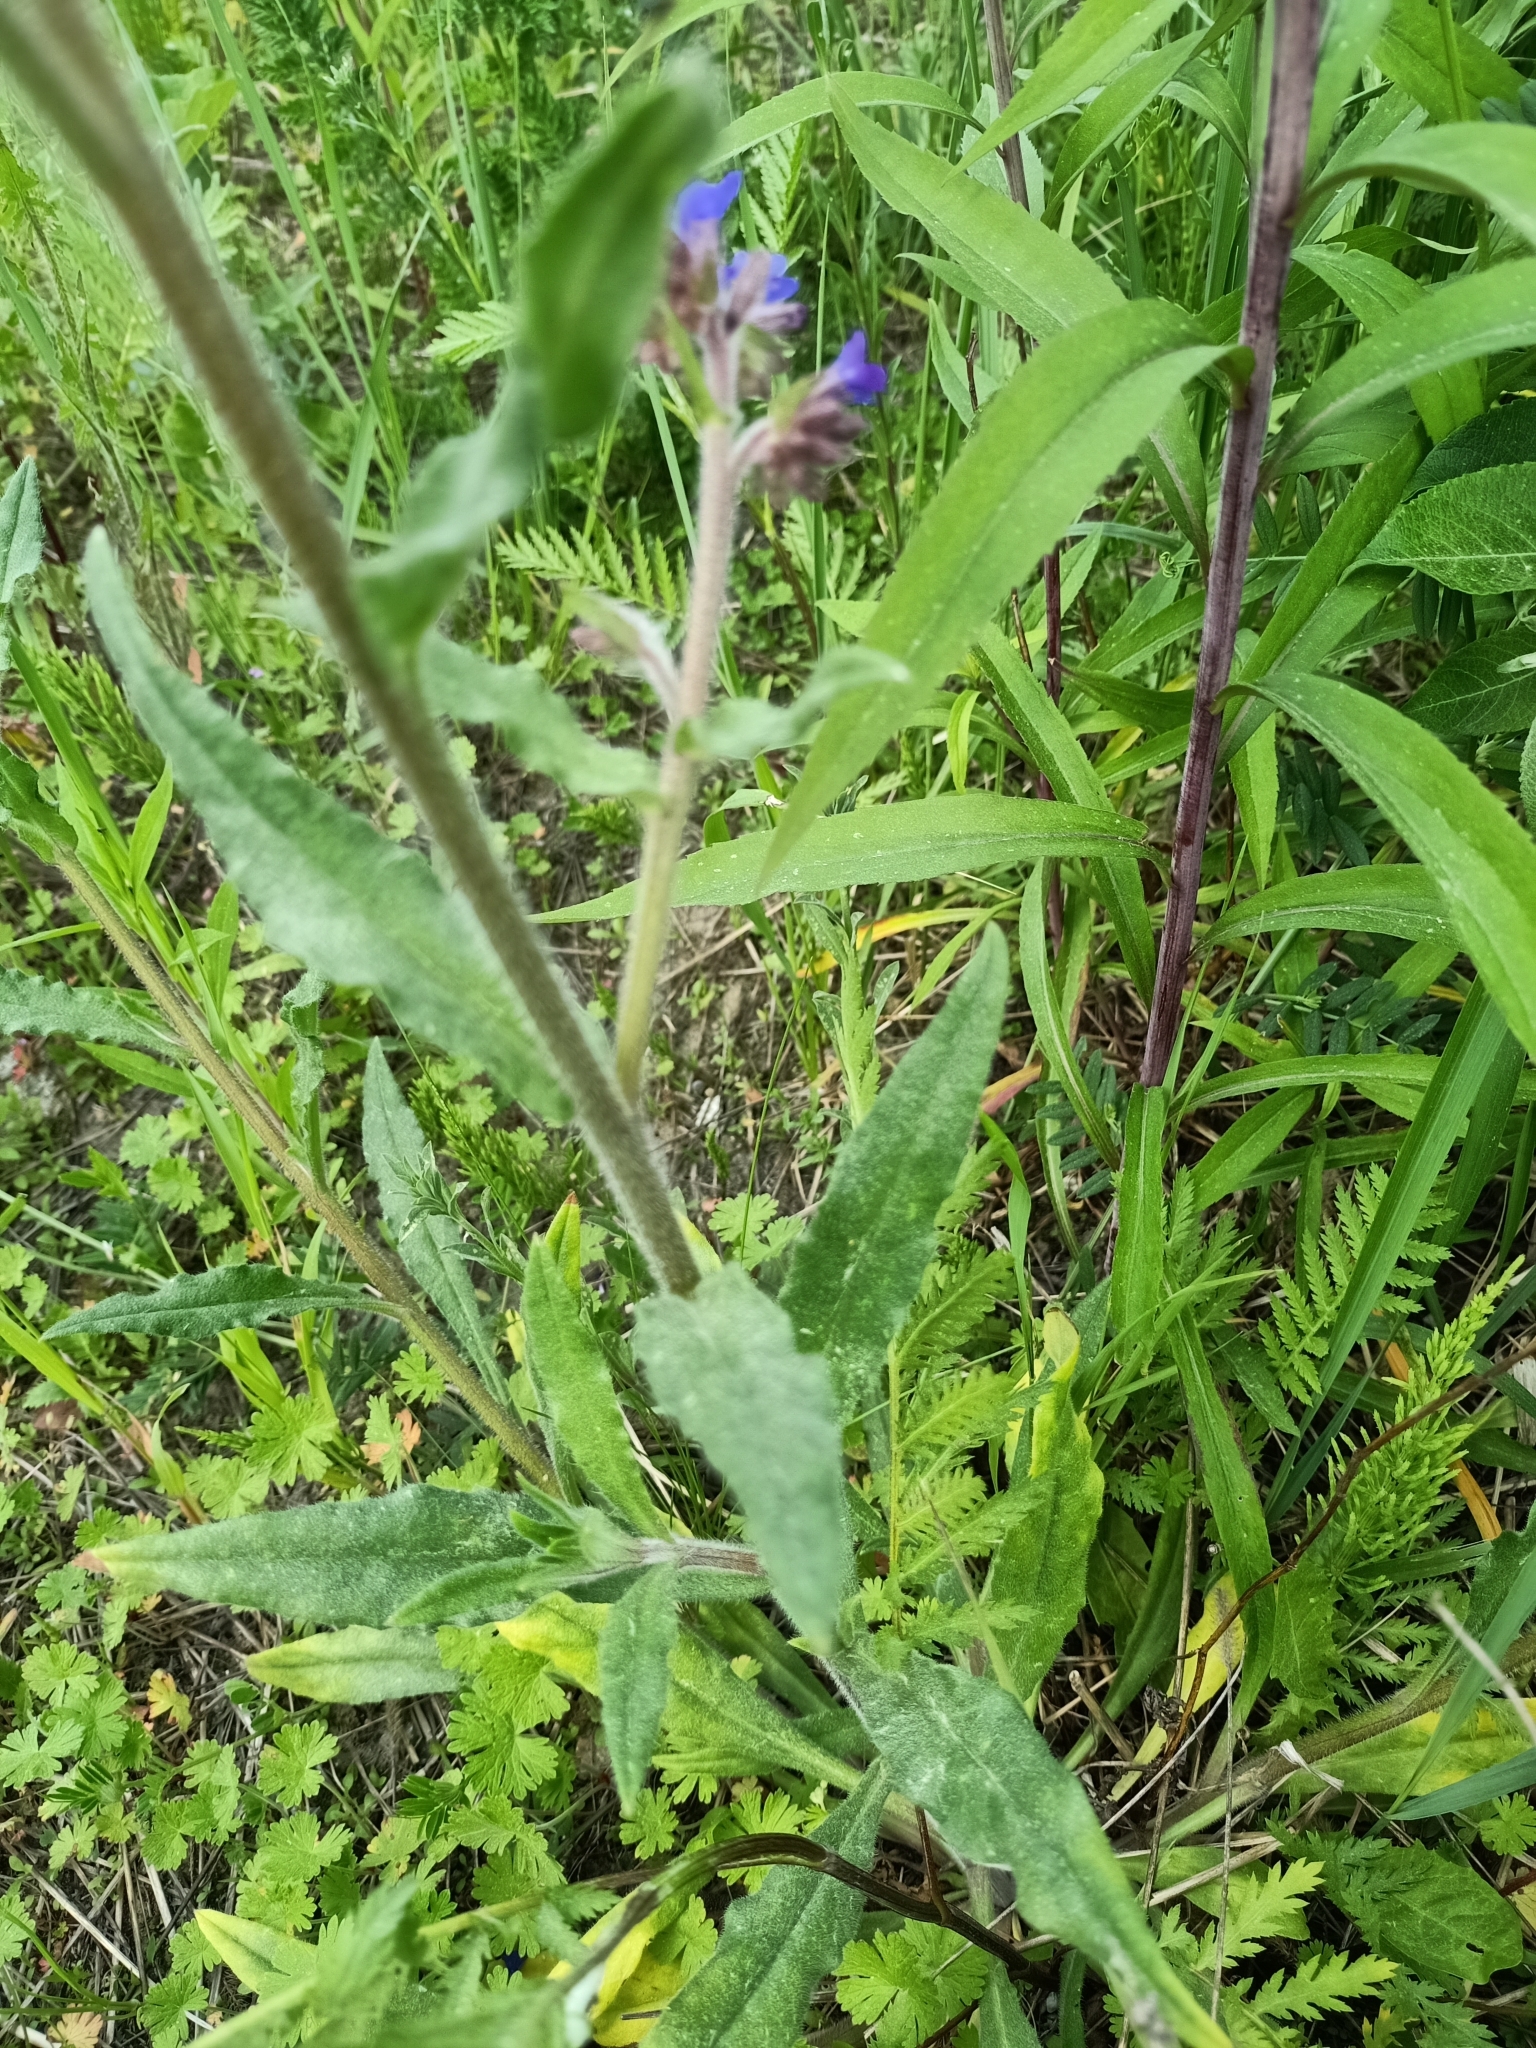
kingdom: Plantae
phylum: Tracheophyta
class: Magnoliopsida
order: Boraginales
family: Boraginaceae
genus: Anchusa
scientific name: Anchusa officinalis
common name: Alkanet
